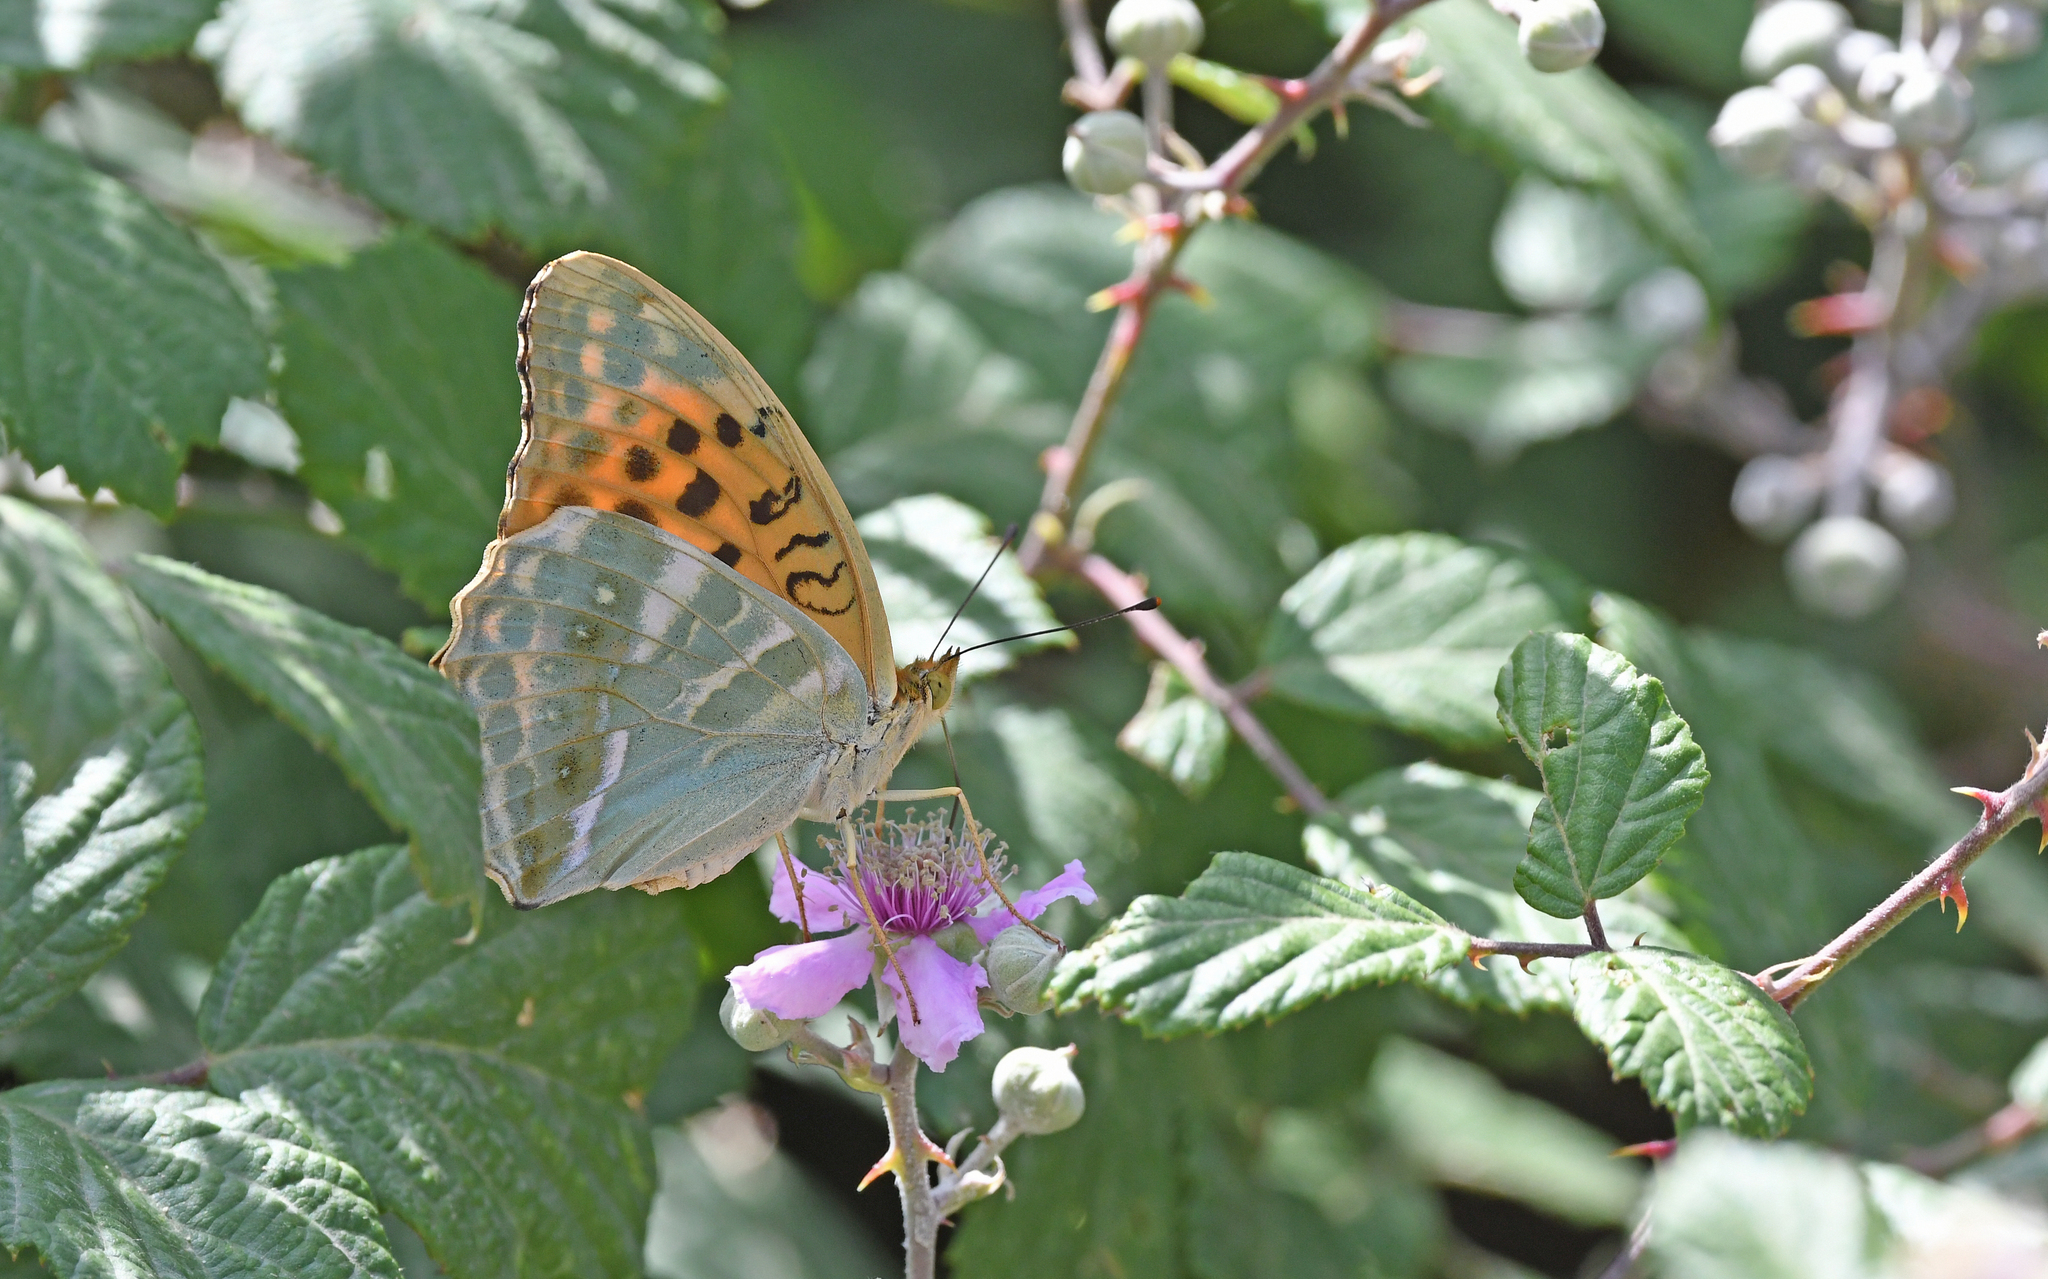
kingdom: Animalia
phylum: Arthropoda
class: Insecta
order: Lepidoptera
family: Nymphalidae
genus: Argynnis
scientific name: Argynnis paphia
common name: Silver-washed fritillary
